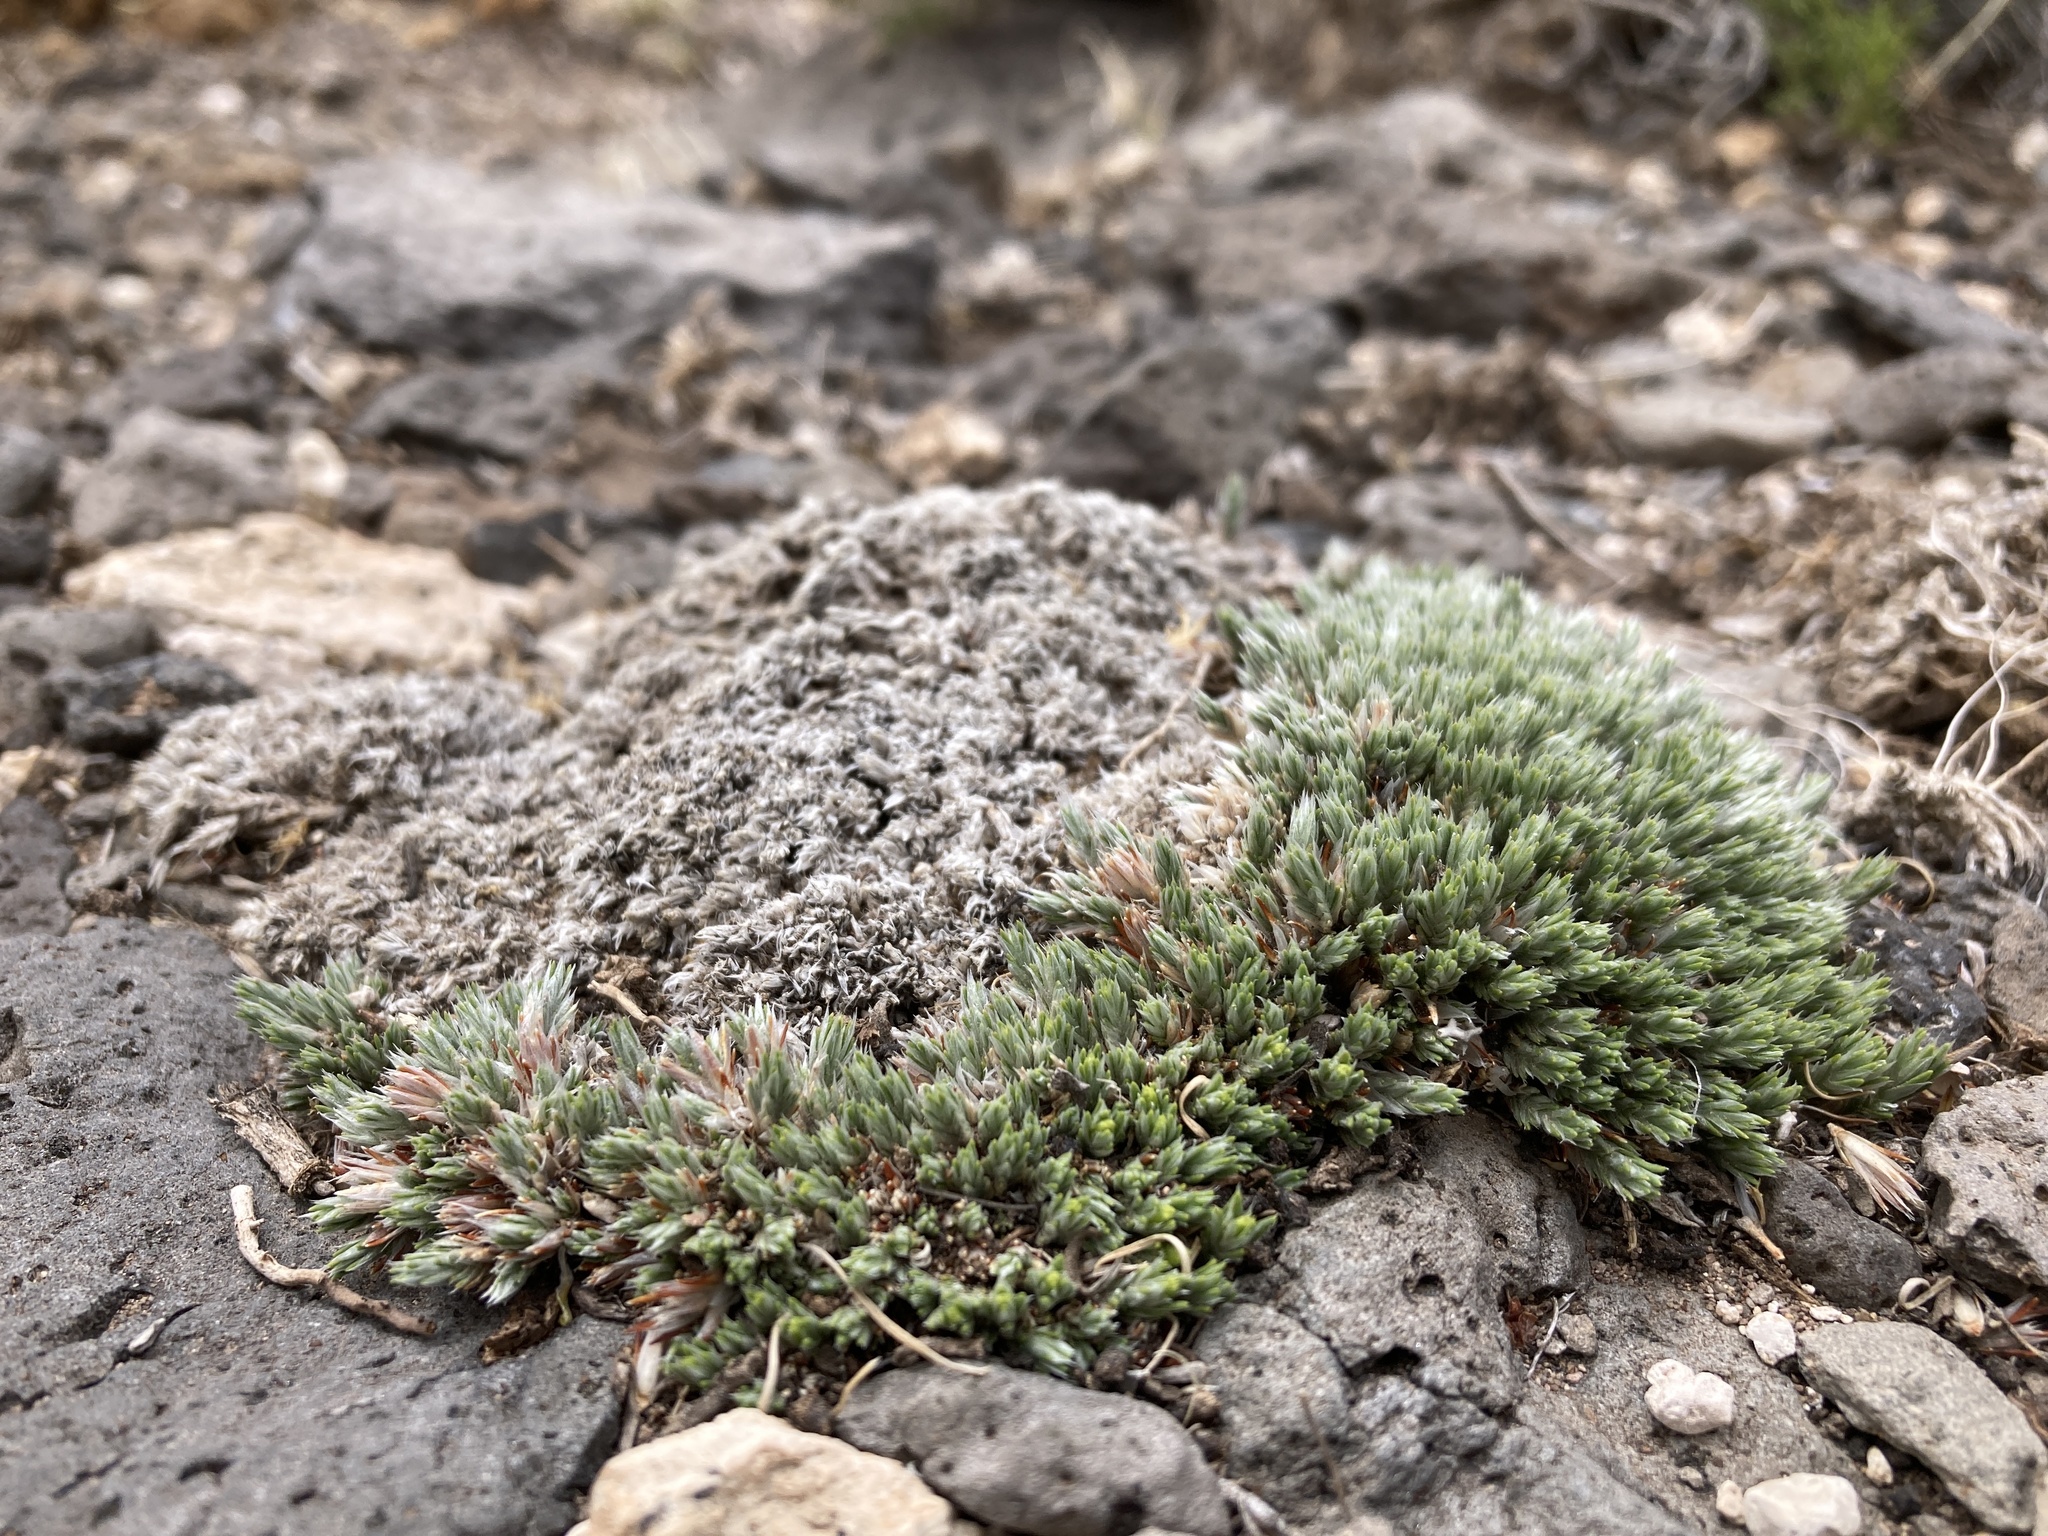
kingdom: Plantae
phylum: Tracheophyta
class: Magnoliopsida
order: Caryophyllales
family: Caryophyllaceae
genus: Paronychia
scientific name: Paronychia sessiliflora
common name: Creeping nailwort
